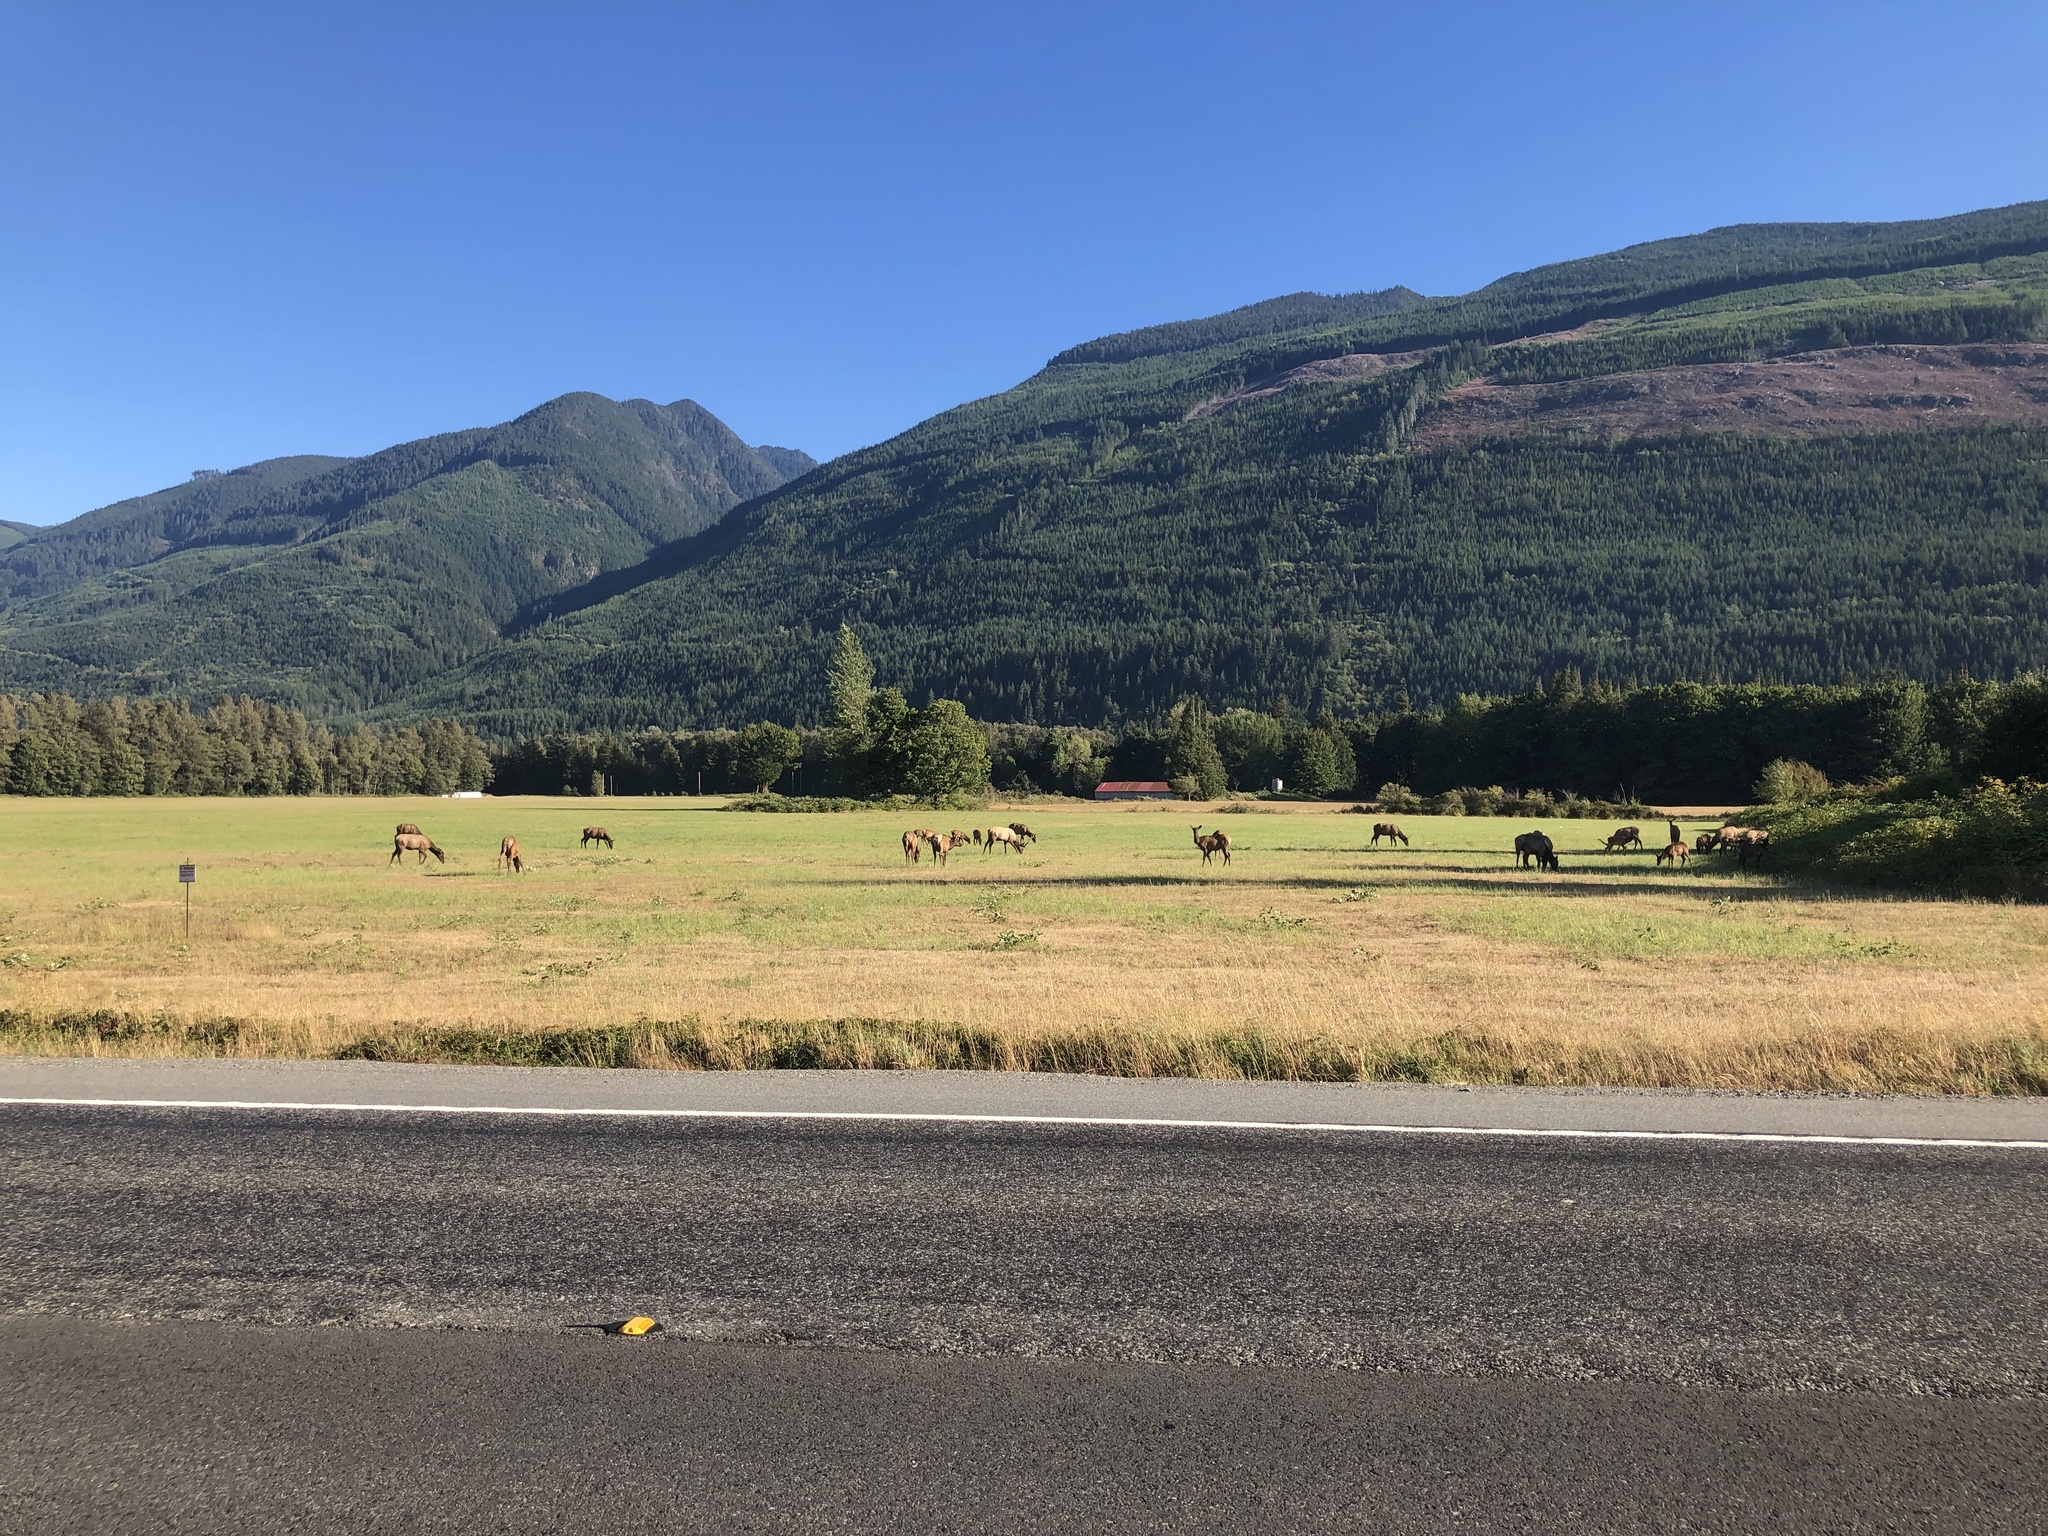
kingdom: Animalia
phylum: Chordata
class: Mammalia
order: Artiodactyla
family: Cervidae
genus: Cervus
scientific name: Cervus elaphus
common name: Red deer
